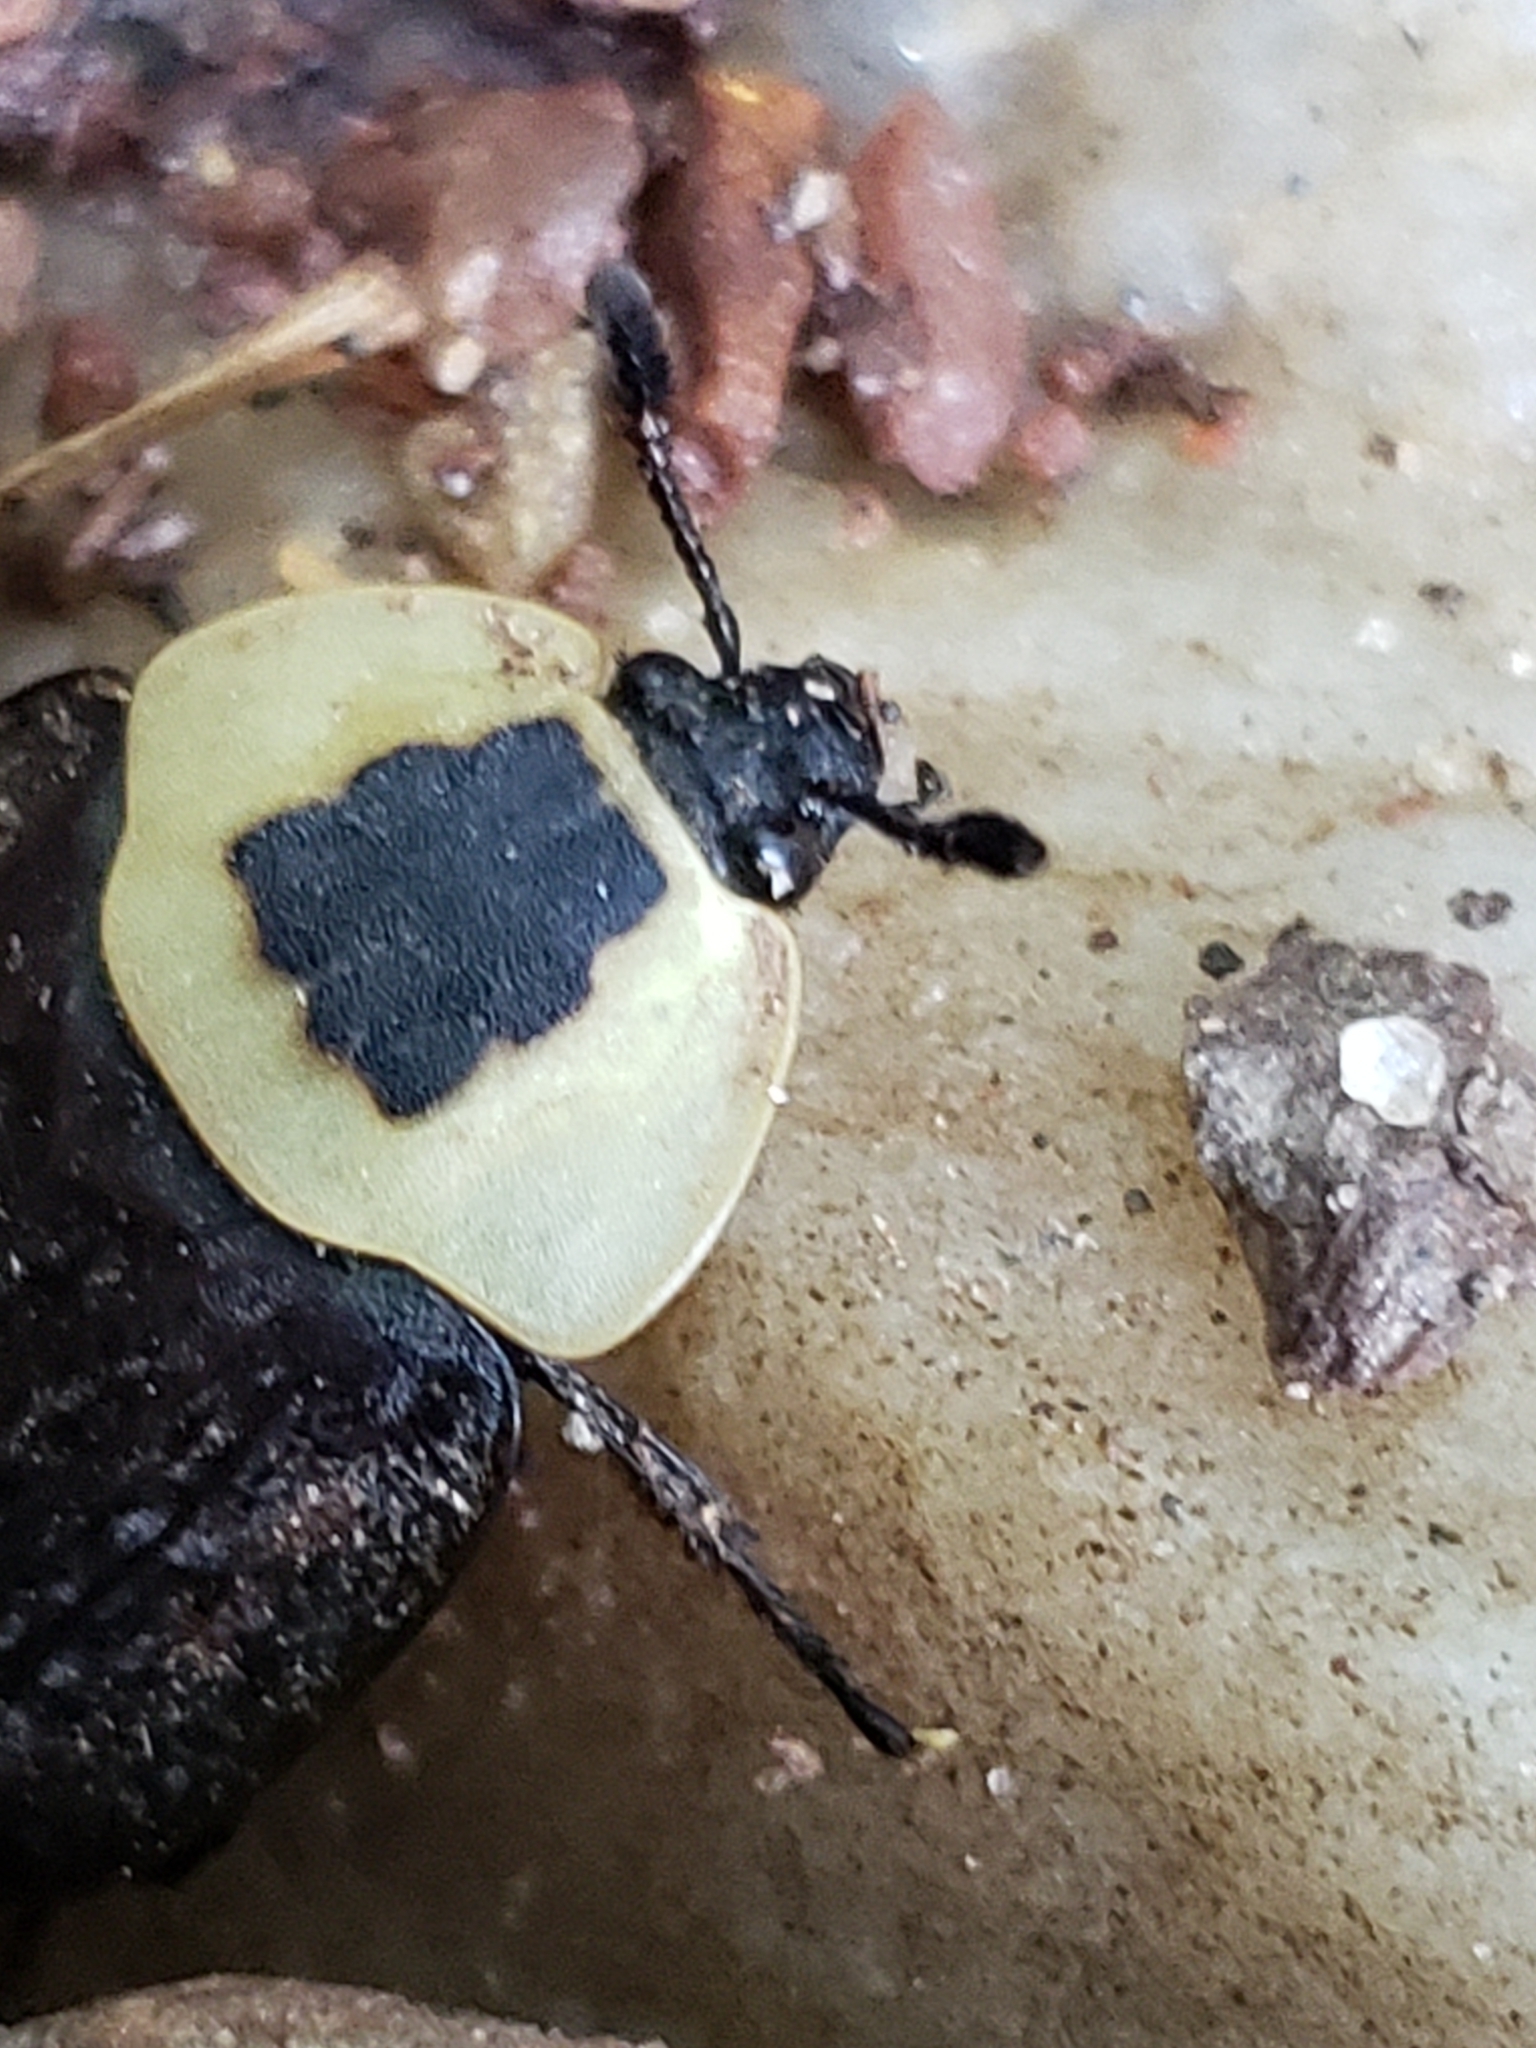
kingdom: Animalia
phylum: Arthropoda
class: Insecta
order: Coleoptera
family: Staphylinidae
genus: Necrophila
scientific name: Necrophila americana
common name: American carrion beetle
